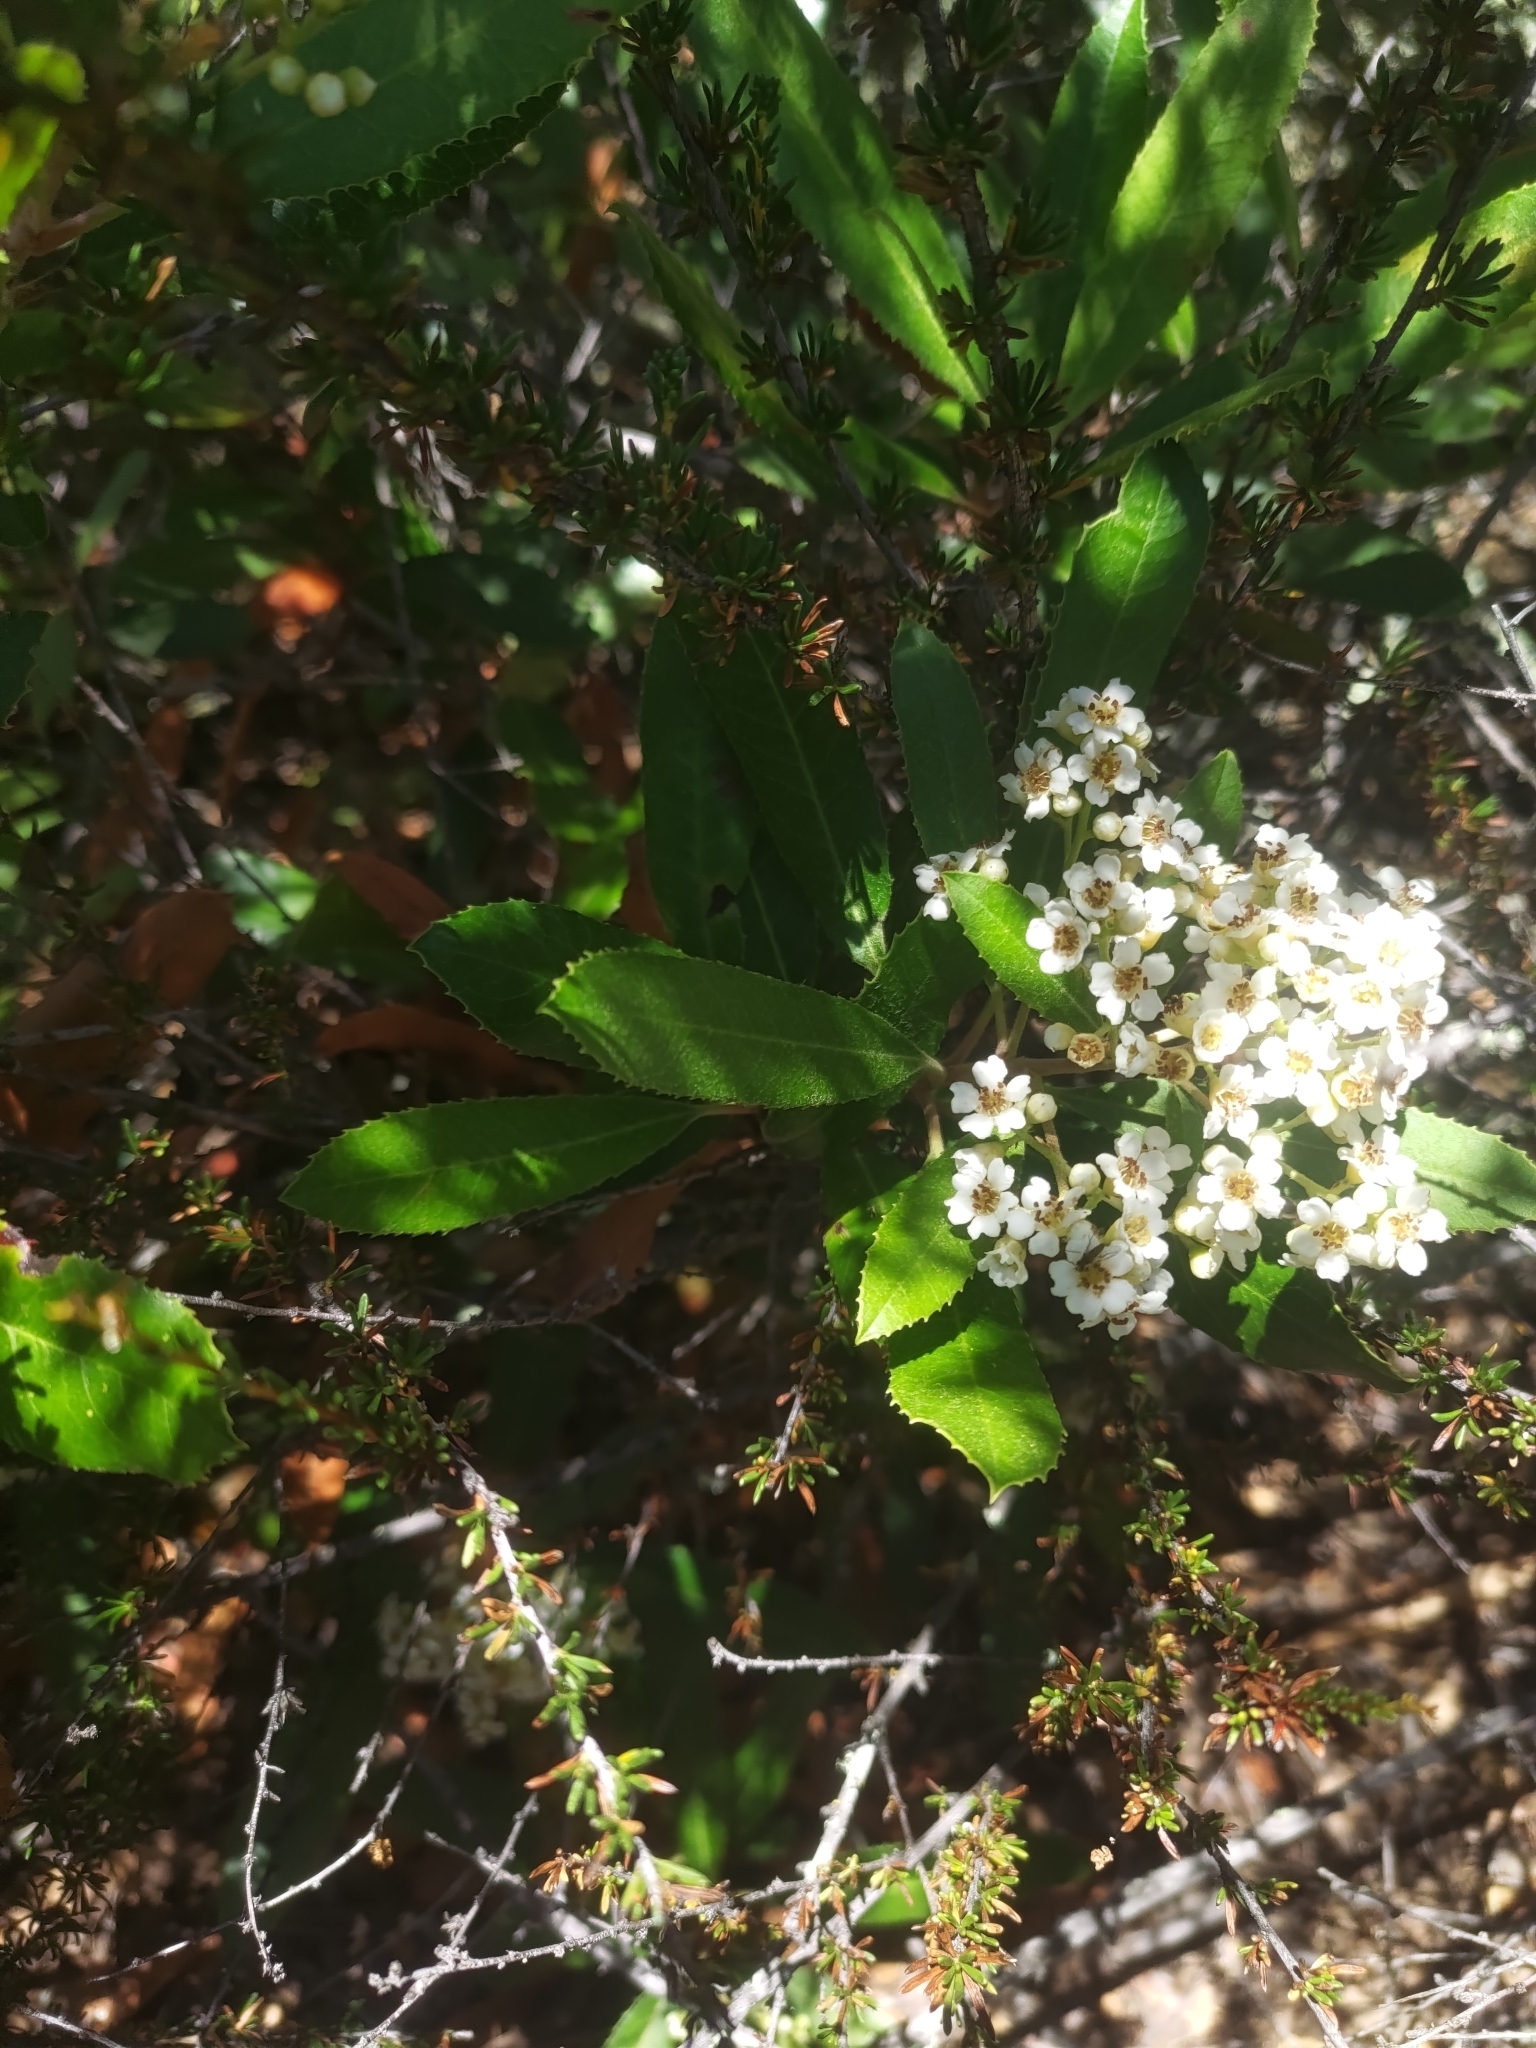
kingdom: Plantae
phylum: Tracheophyta
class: Magnoliopsida
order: Rosales
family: Rosaceae
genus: Heteromeles
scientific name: Heteromeles arbutifolia
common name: California-holly
